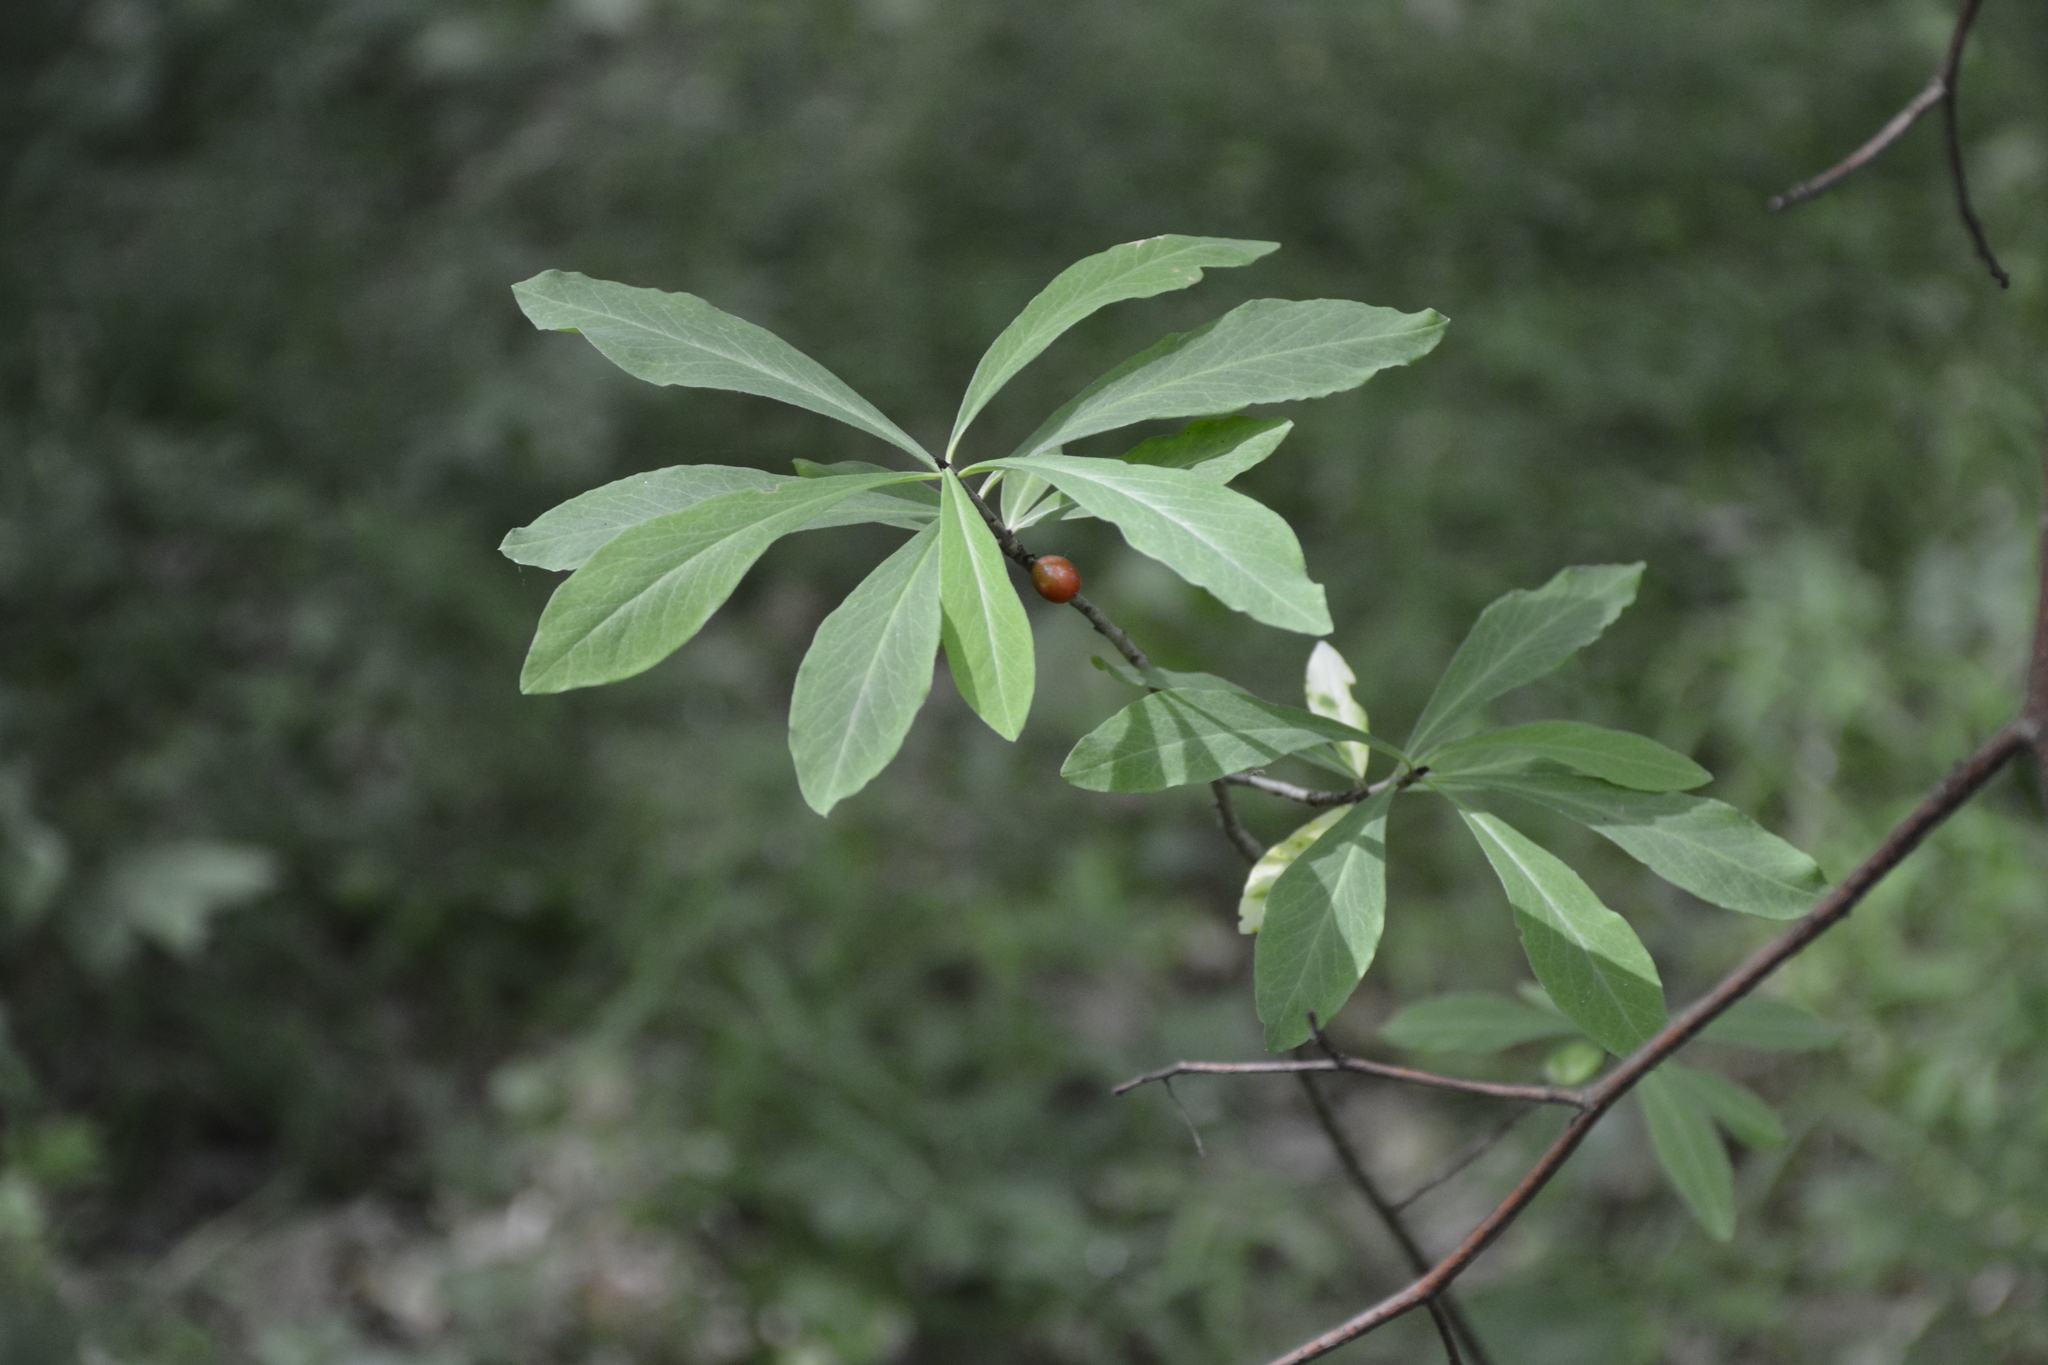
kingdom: Plantae
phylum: Tracheophyta
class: Magnoliopsida
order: Malvales
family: Thymelaeaceae
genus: Daphne
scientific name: Daphne mezereum
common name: Mezereon
